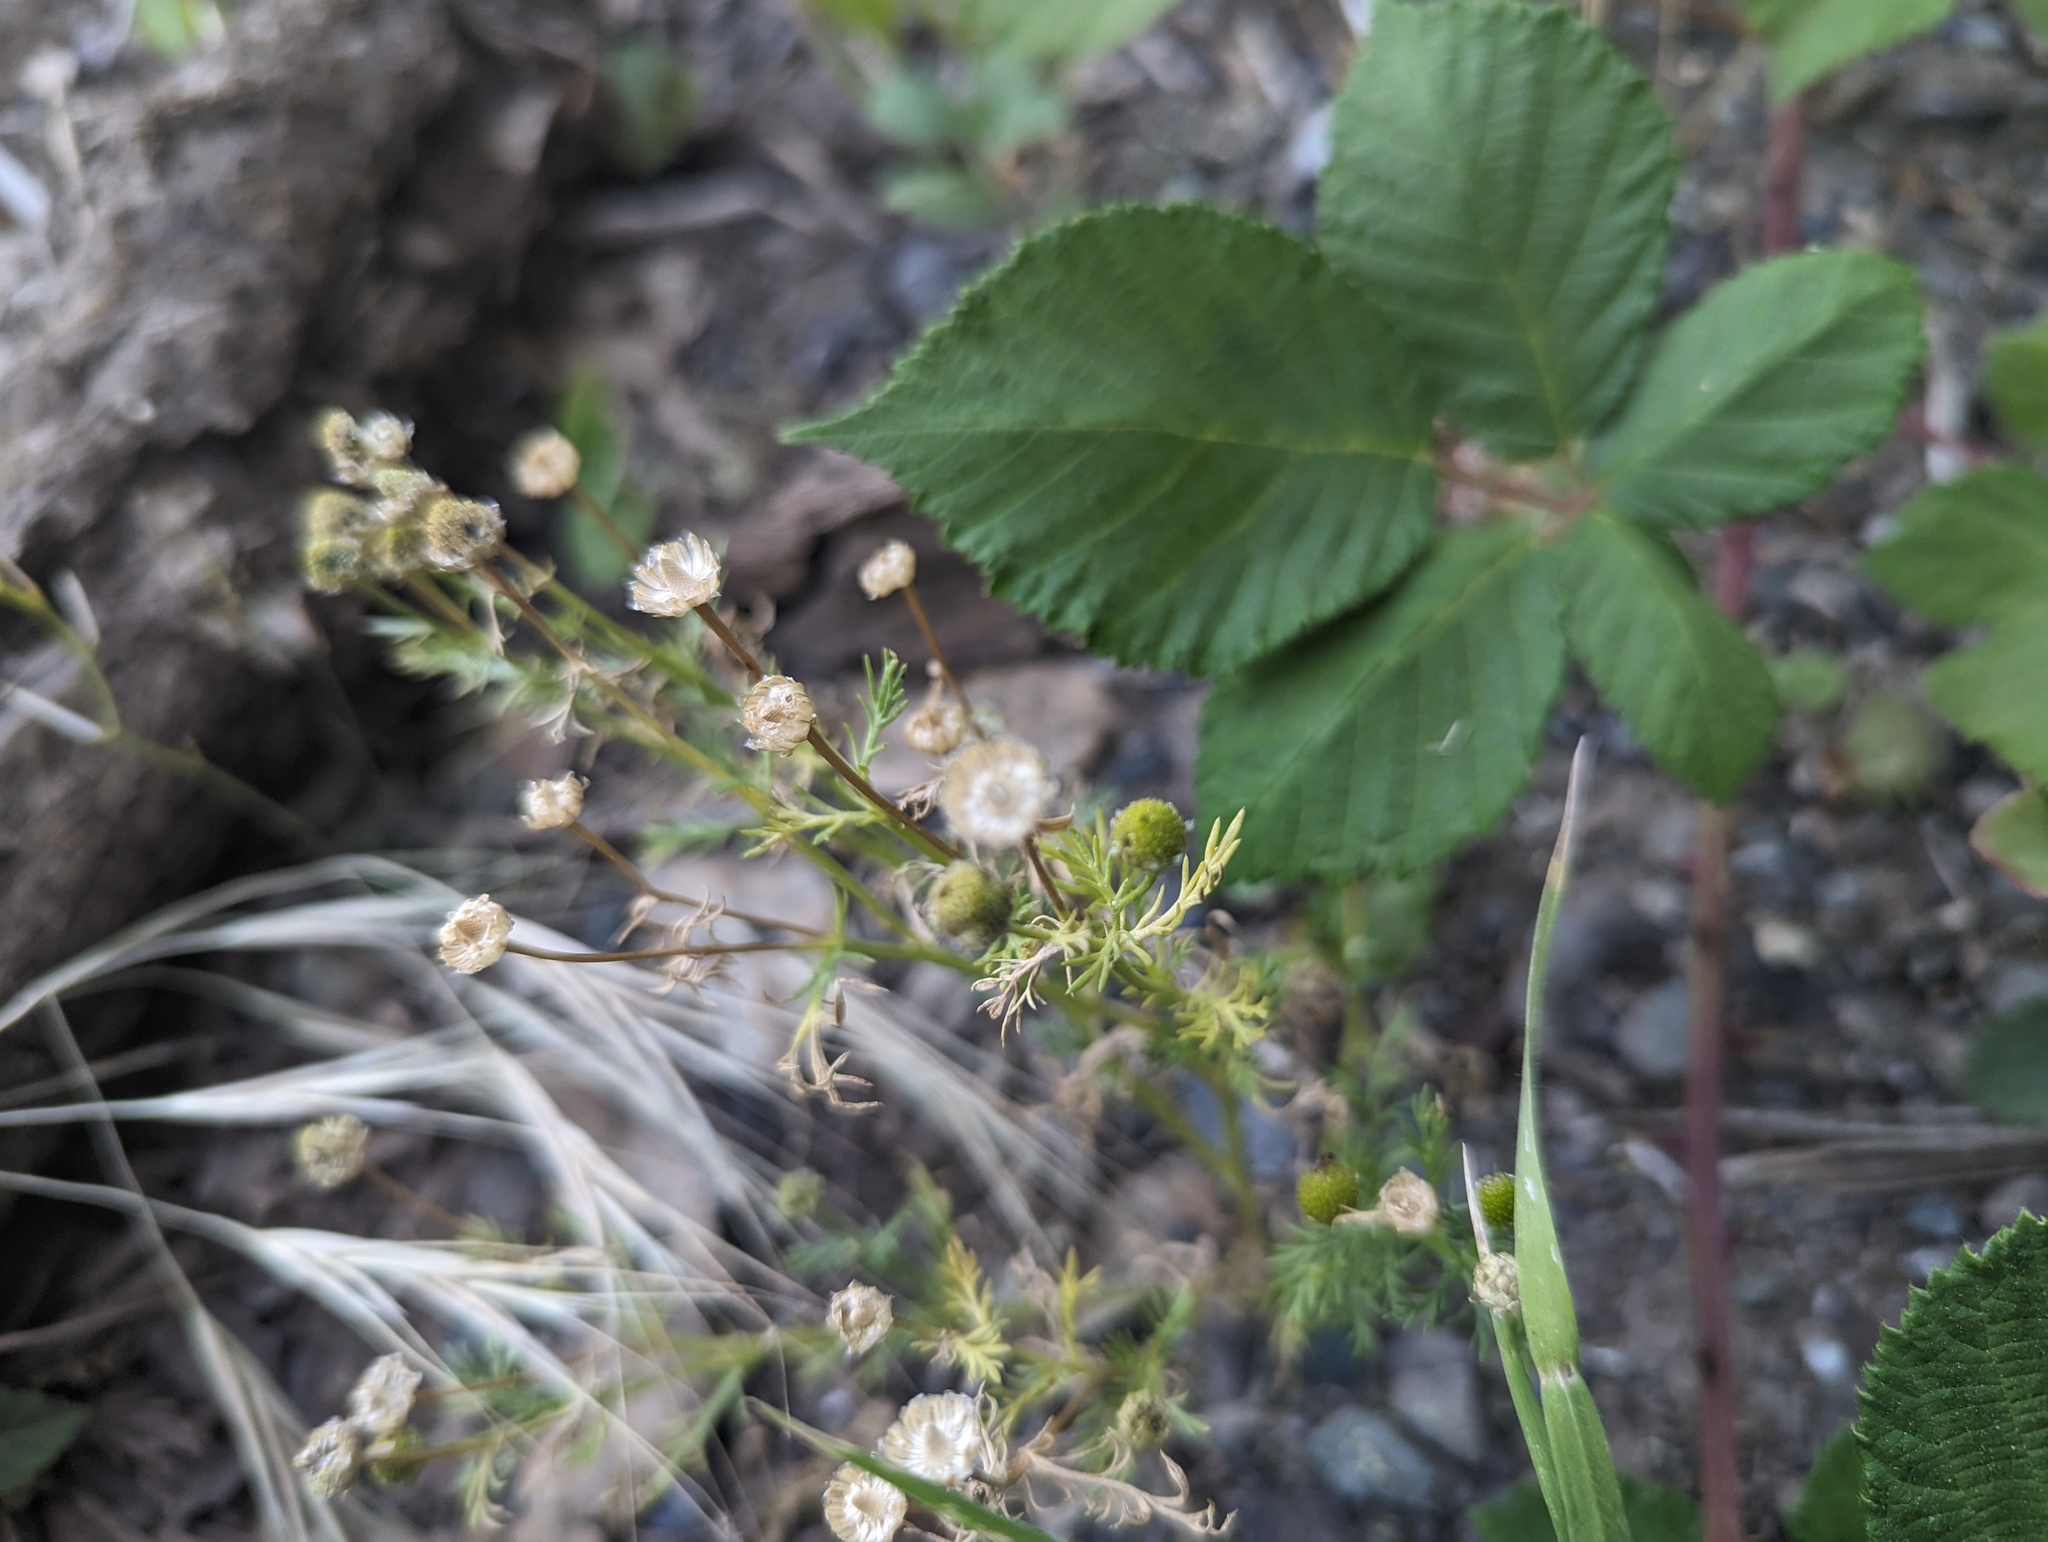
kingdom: Plantae
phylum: Tracheophyta
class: Magnoliopsida
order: Asterales
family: Asteraceae
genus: Matricaria
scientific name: Matricaria discoidea
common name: Disc mayweed
